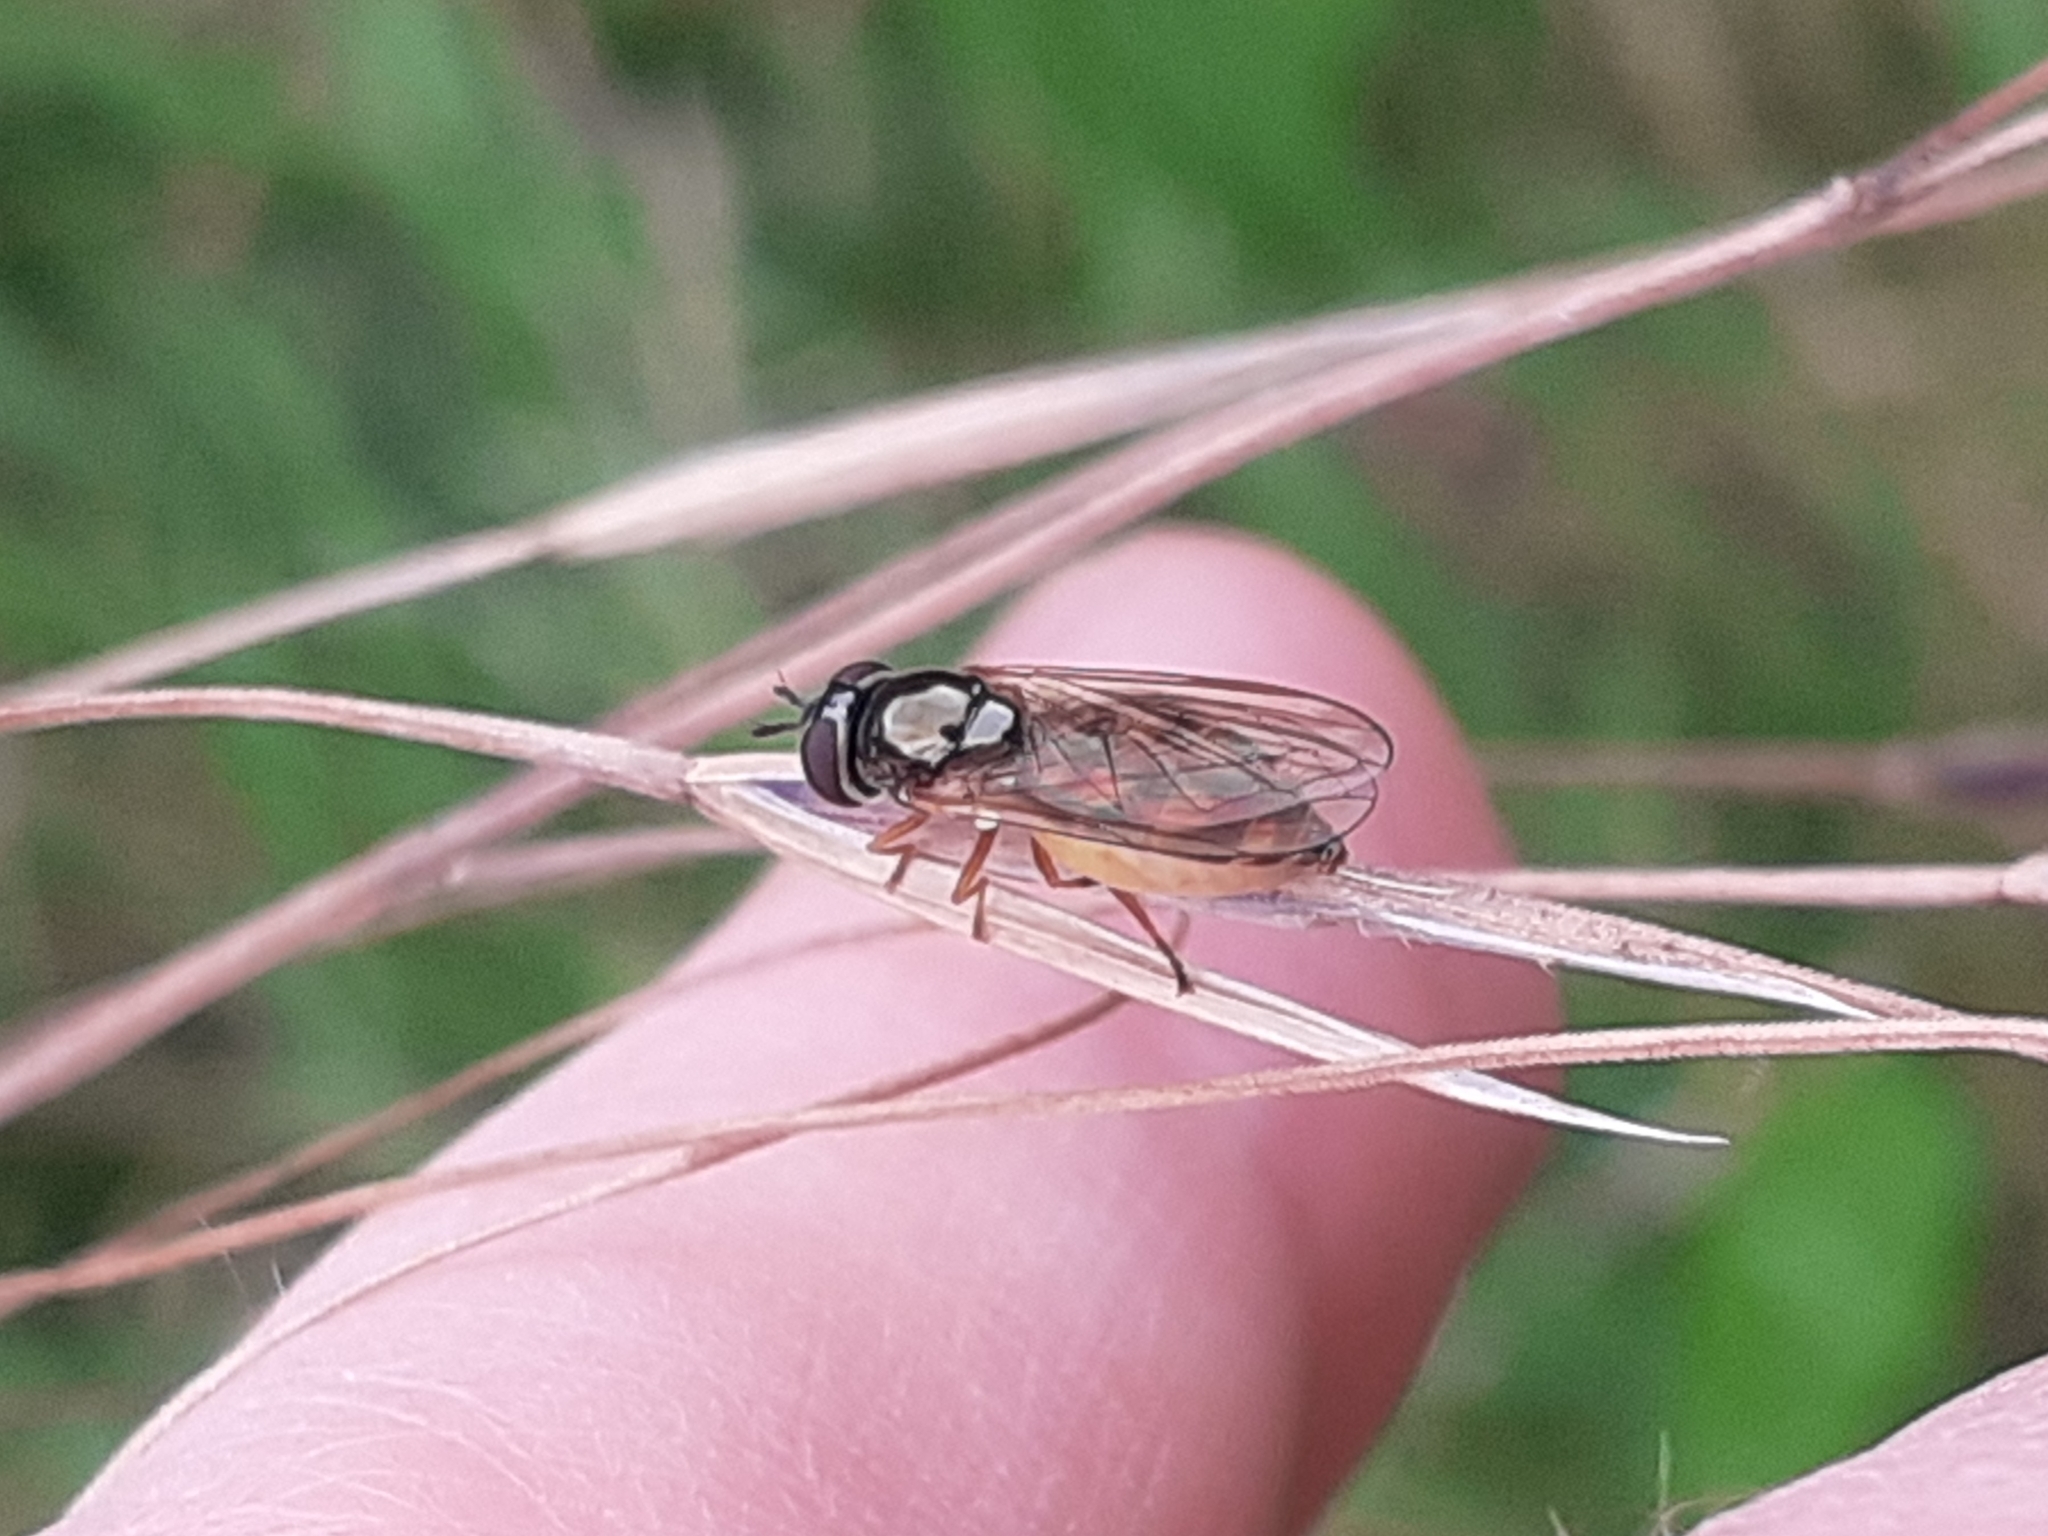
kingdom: Animalia
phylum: Arthropoda
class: Insecta
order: Diptera
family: Syrphidae
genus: Melanostoma
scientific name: Melanostoma
